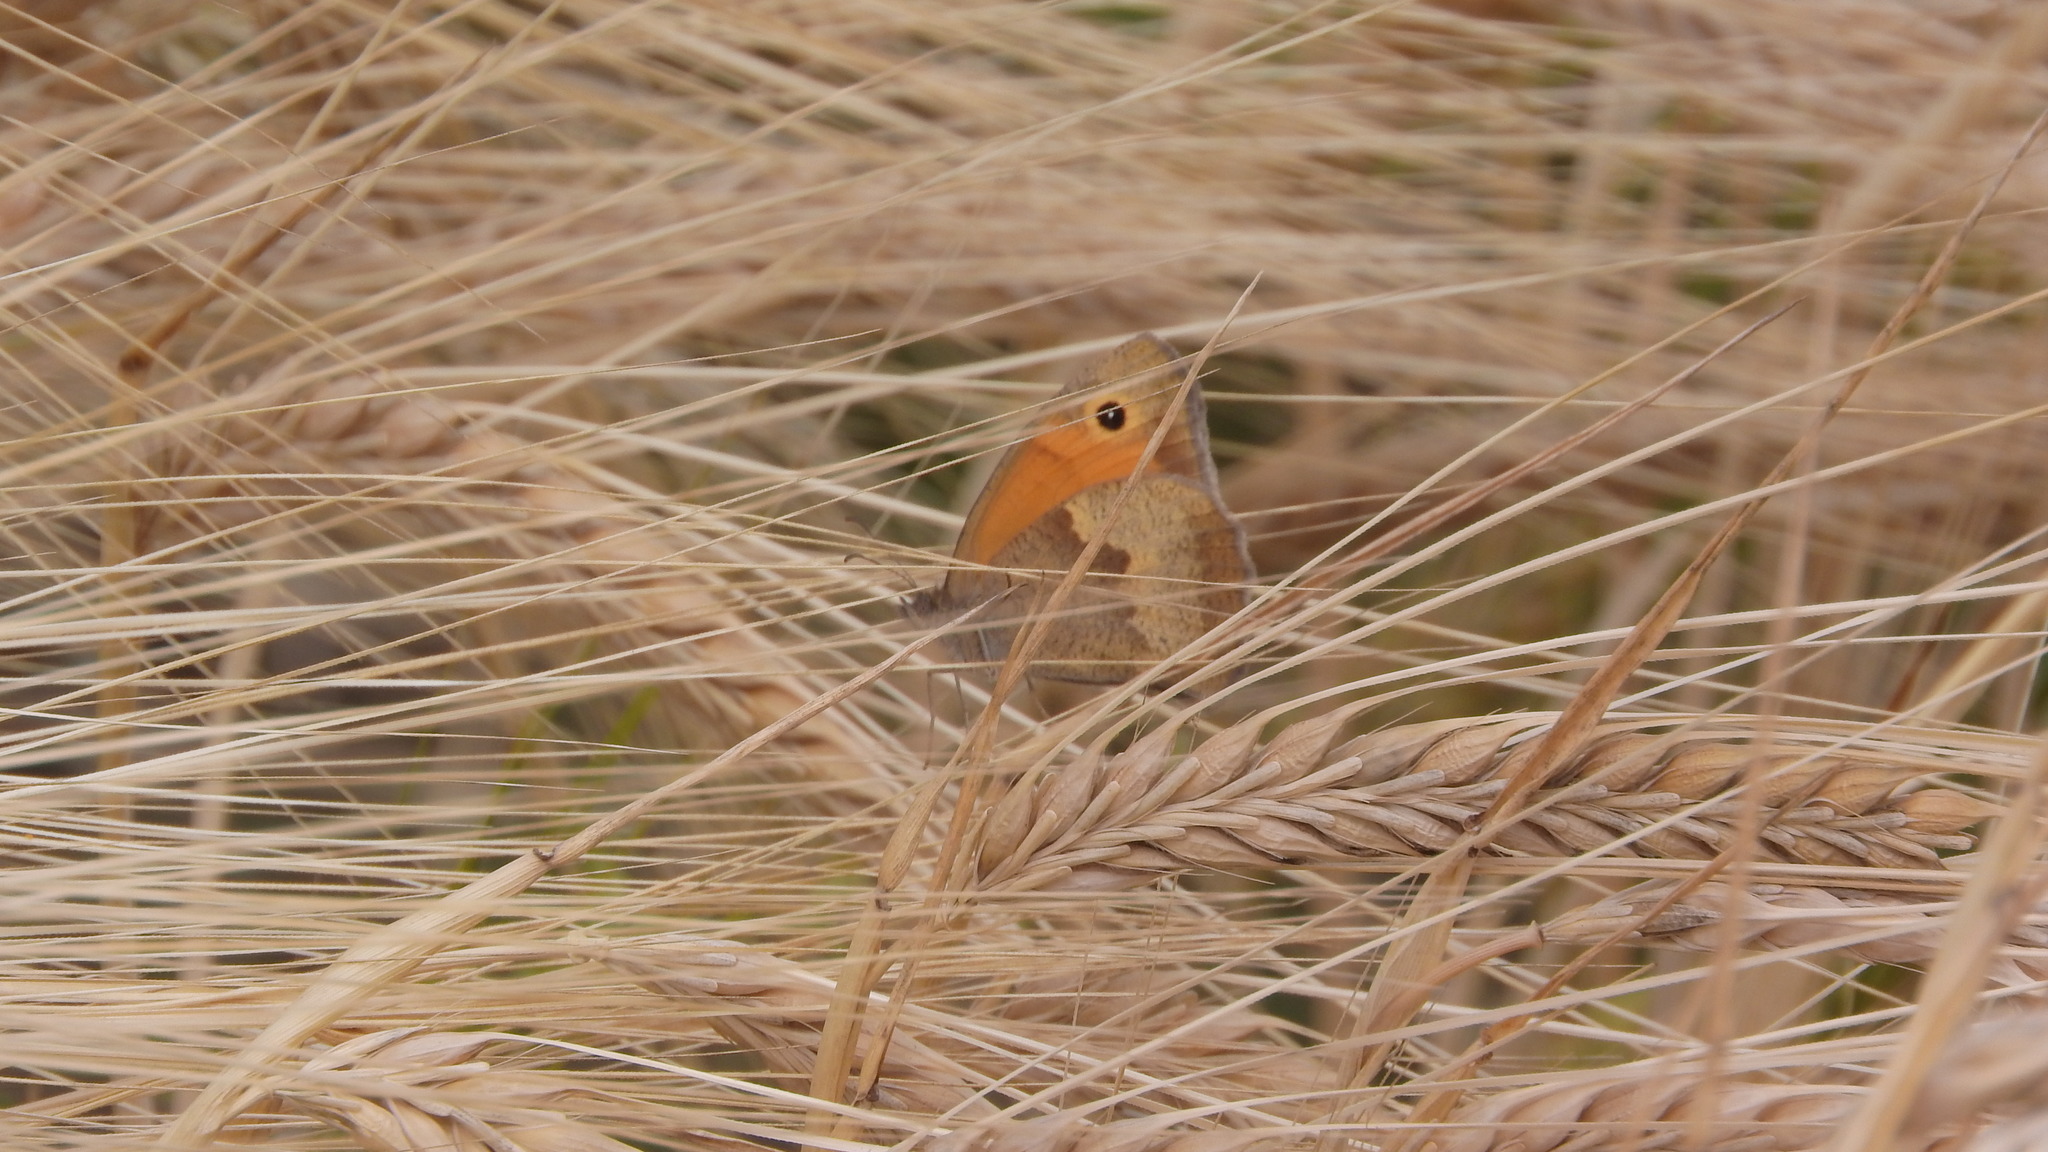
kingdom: Animalia
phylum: Arthropoda
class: Insecta
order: Lepidoptera
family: Nymphalidae
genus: Maniola
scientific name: Maniola jurtina
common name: Meadow brown
